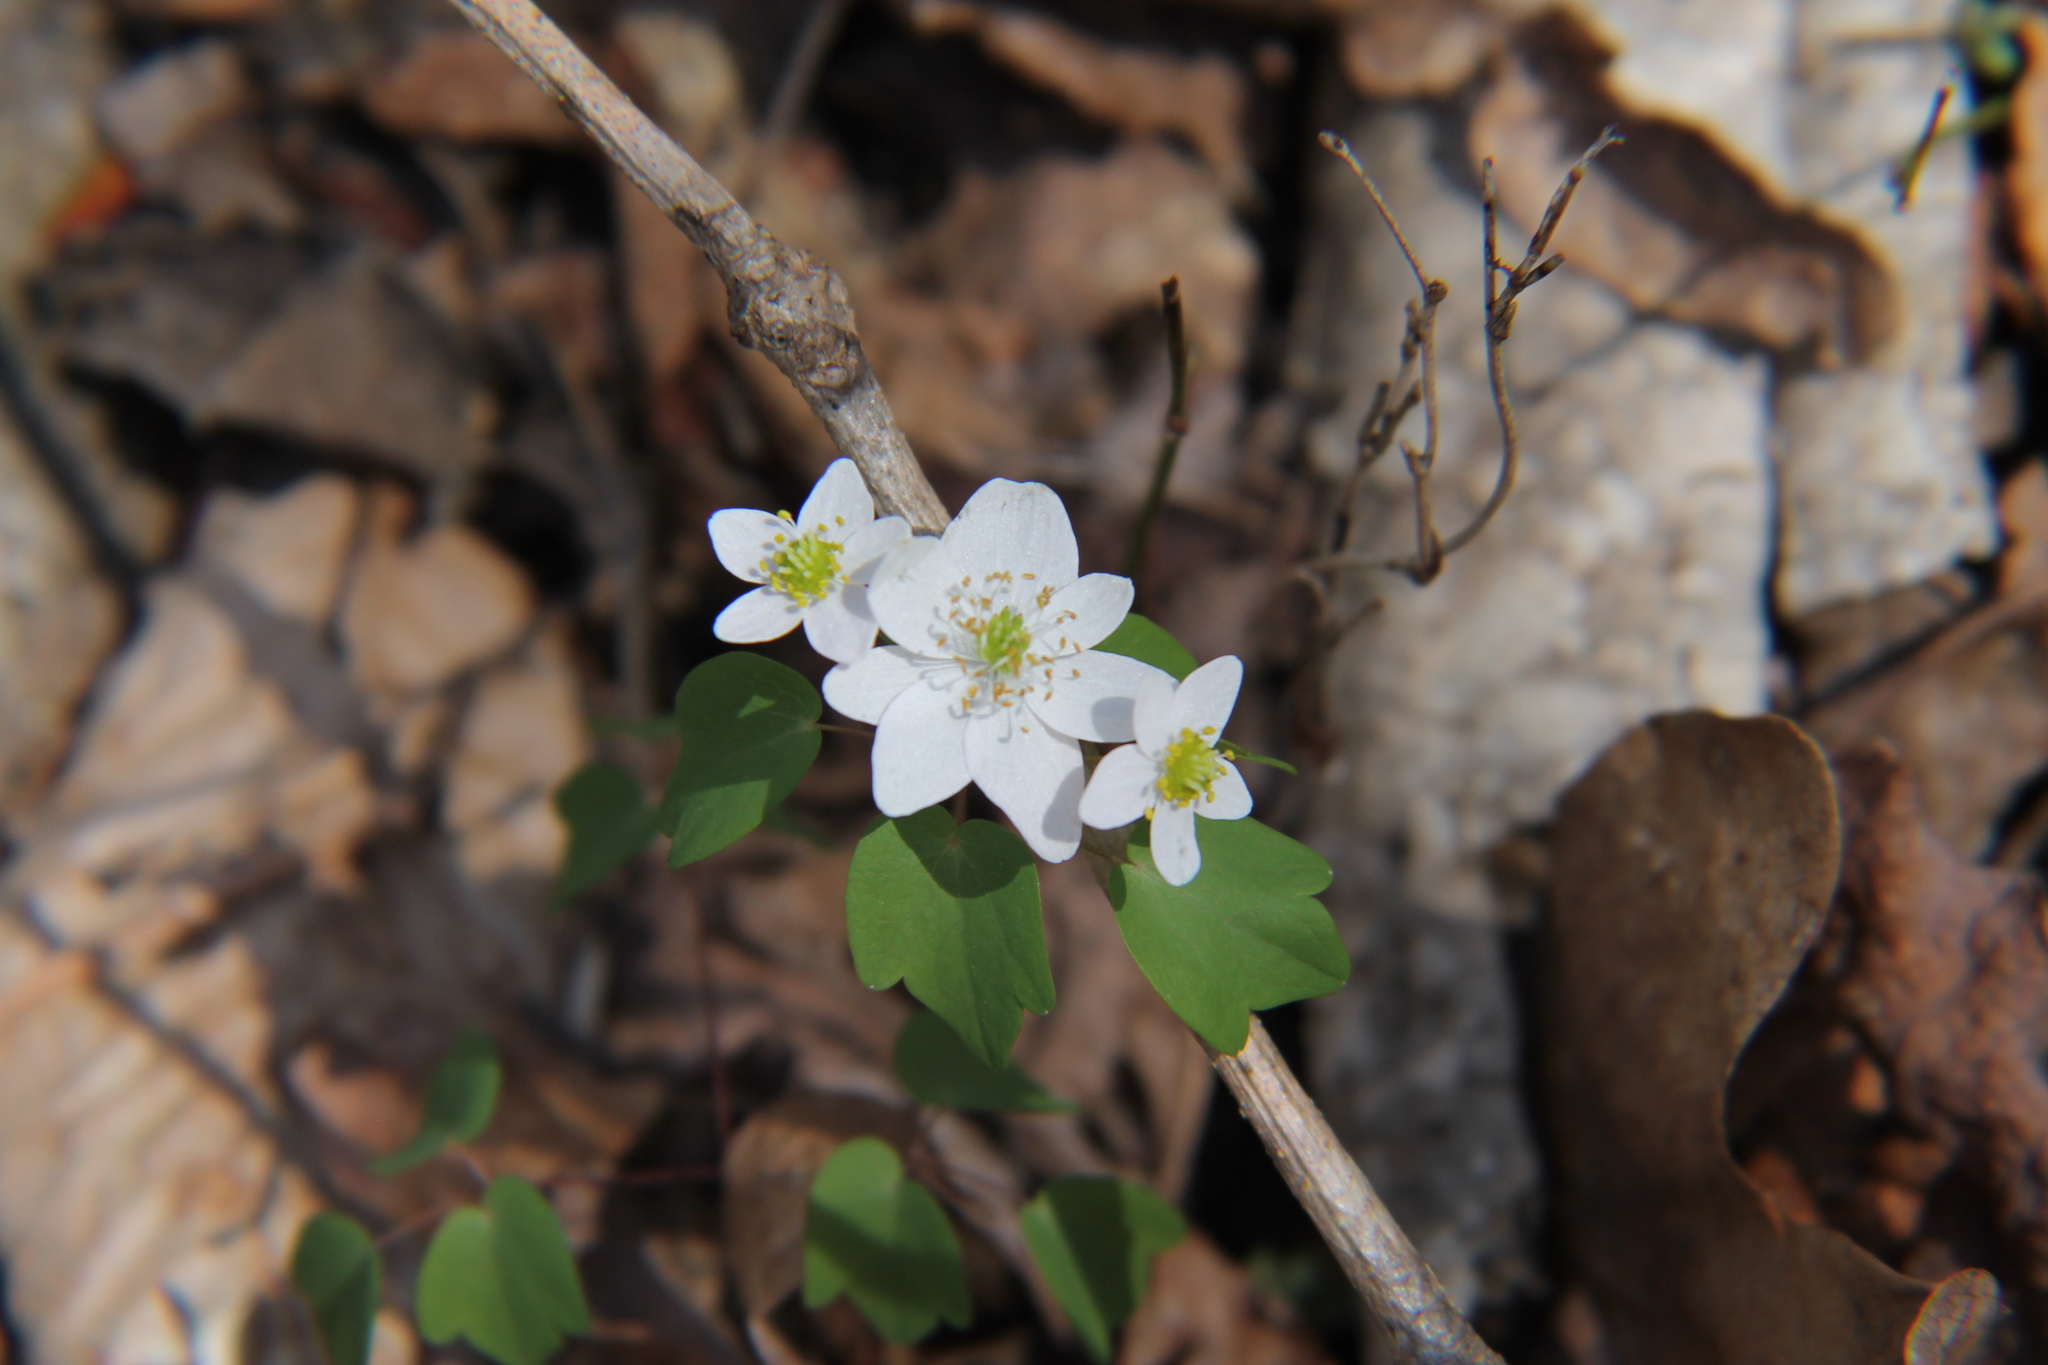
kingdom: Plantae
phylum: Tracheophyta
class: Magnoliopsida
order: Ranunculales
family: Ranunculaceae
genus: Thalictrum
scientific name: Thalictrum thalictroides
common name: Rue-anemone
